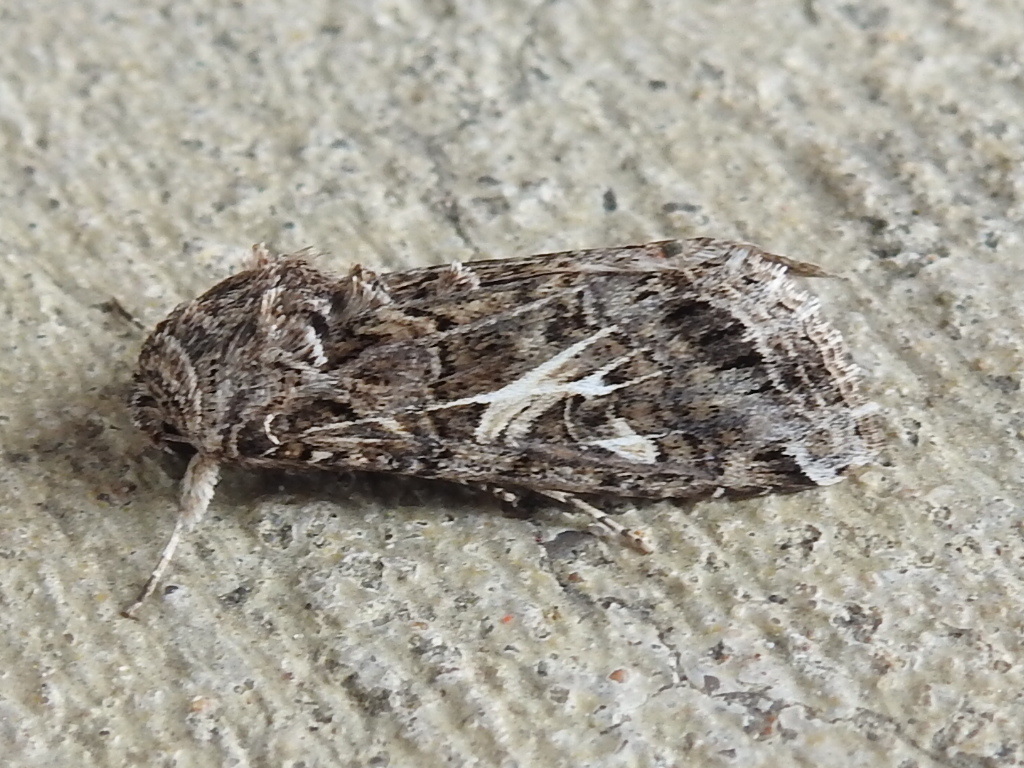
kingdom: Animalia
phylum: Arthropoda
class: Insecta
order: Lepidoptera
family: Noctuidae
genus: Spodoptera
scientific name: Spodoptera ornithogalli
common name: Yellow-striped armyworm
